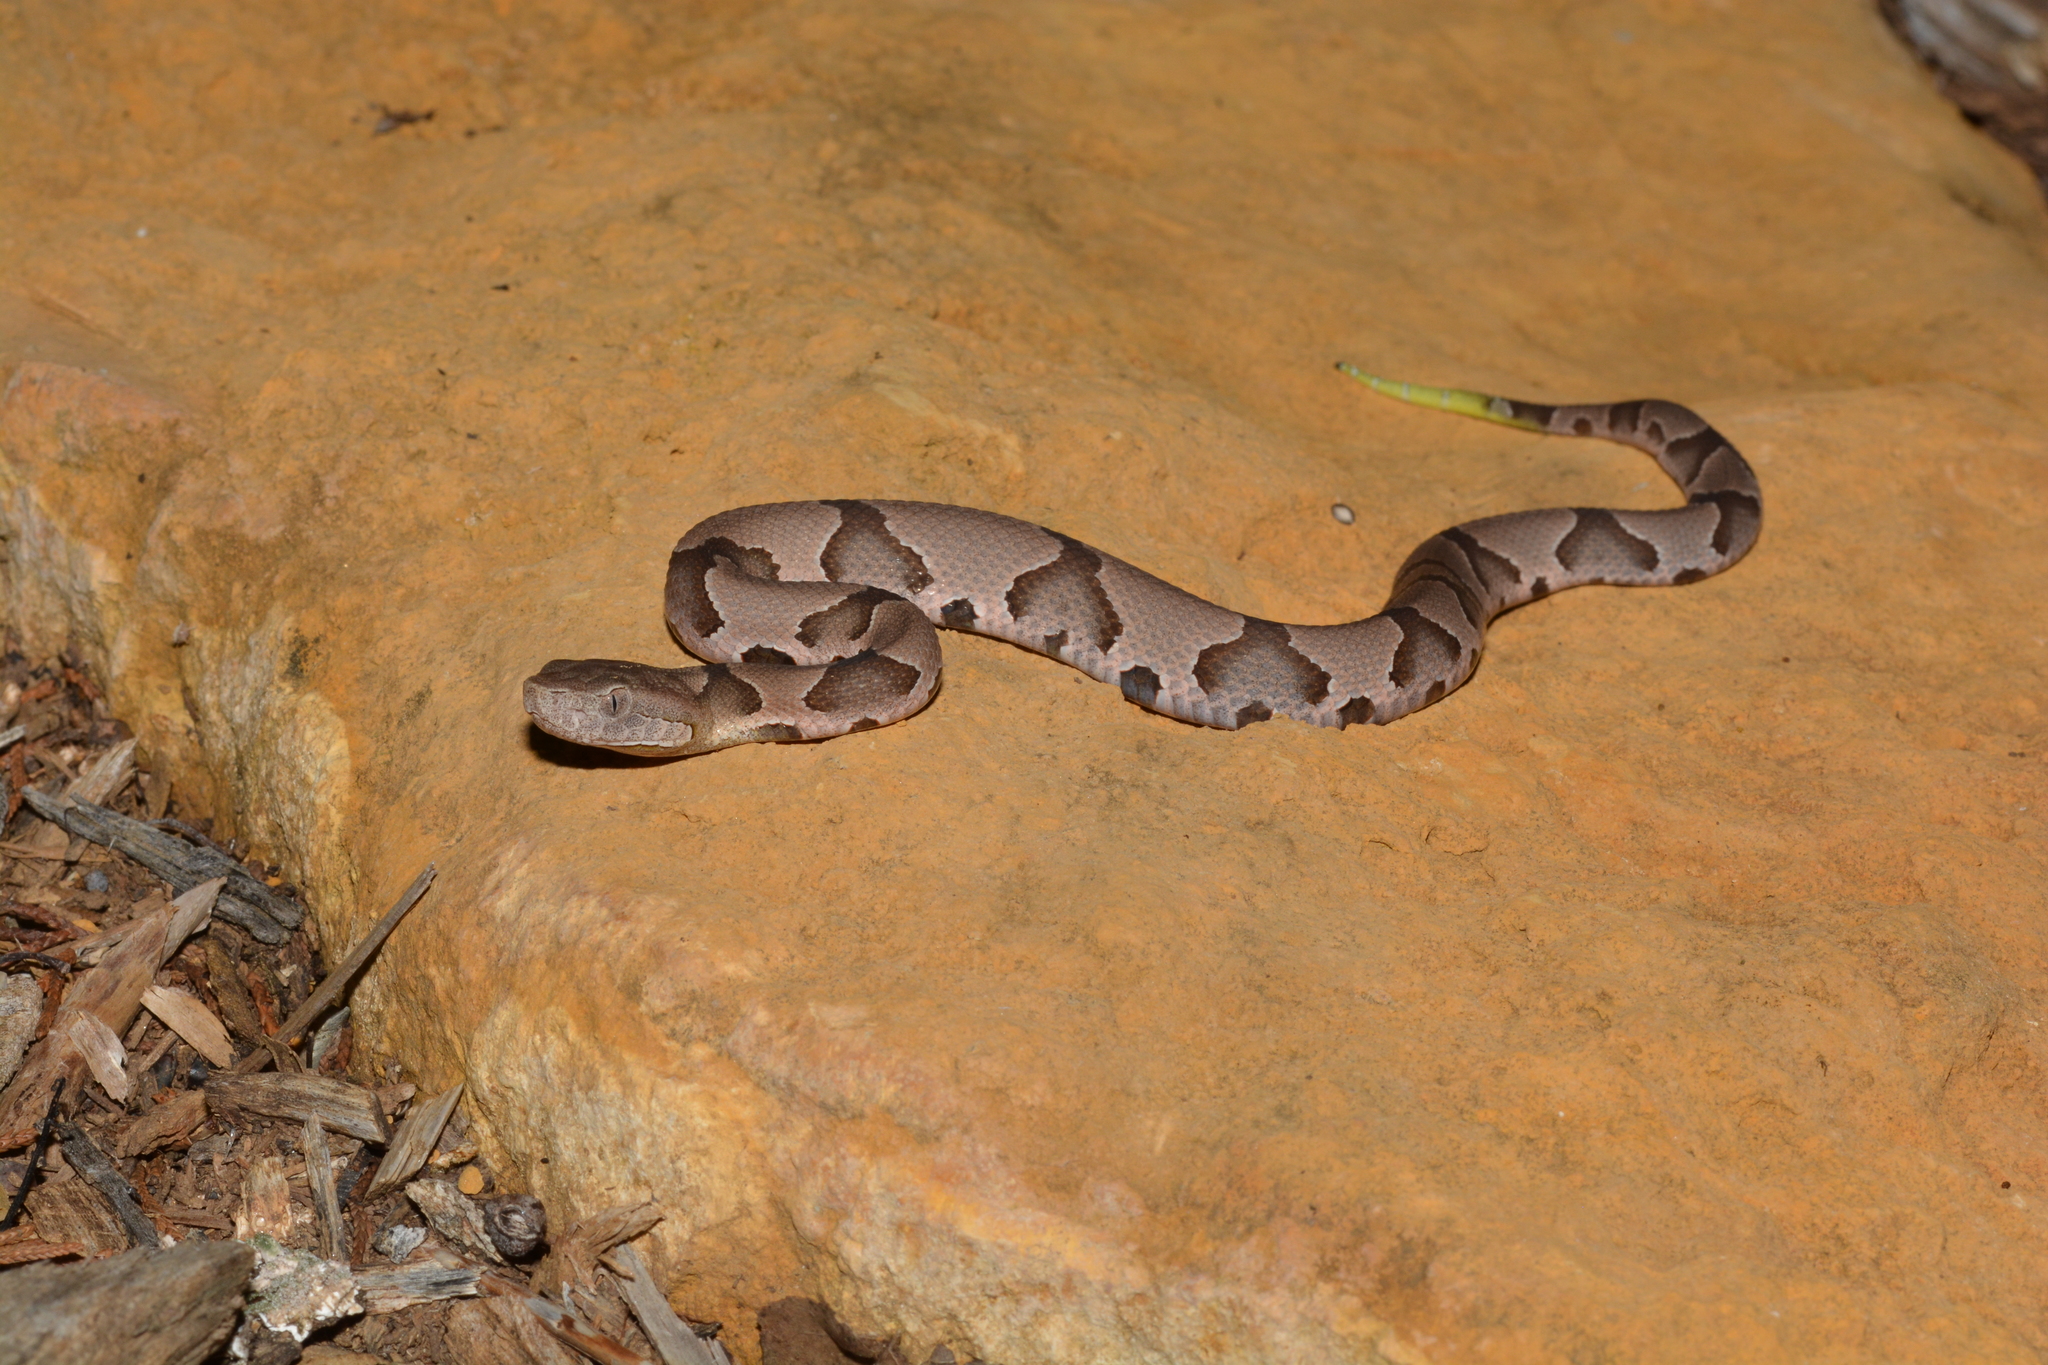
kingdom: Animalia
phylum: Chordata
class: Squamata
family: Viperidae
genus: Agkistrodon
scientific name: Agkistrodon contortrix
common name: Northern copperhead
